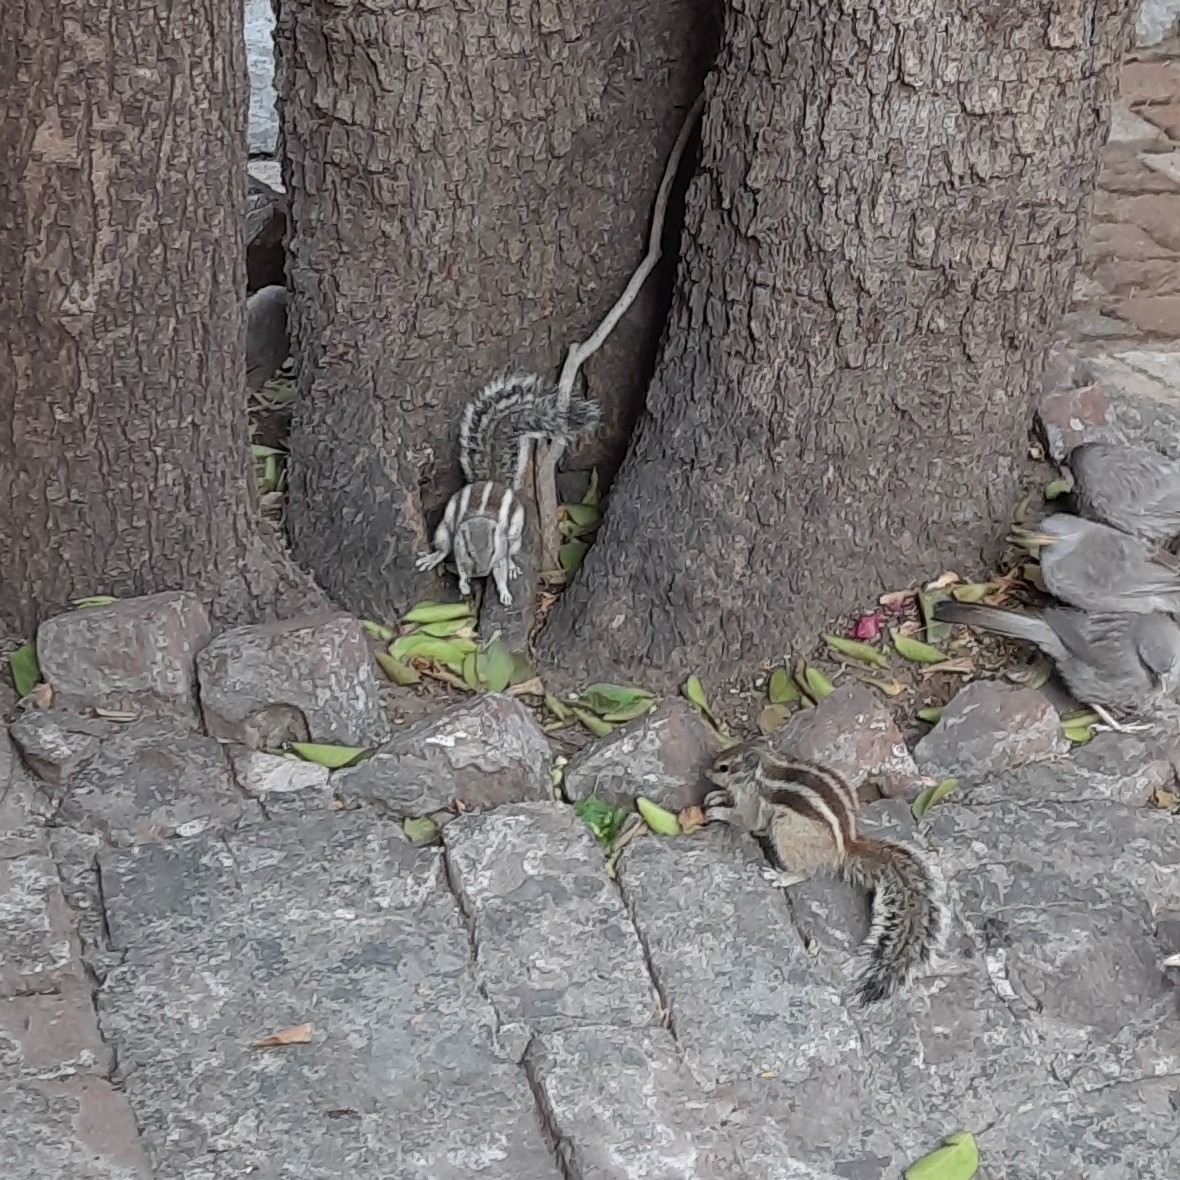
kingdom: Animalia
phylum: Chordata
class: Mammalia
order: Rodentia
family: Sciuridae
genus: Funambulus
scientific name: Funambulus pennantii
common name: Northern palm squirrel
